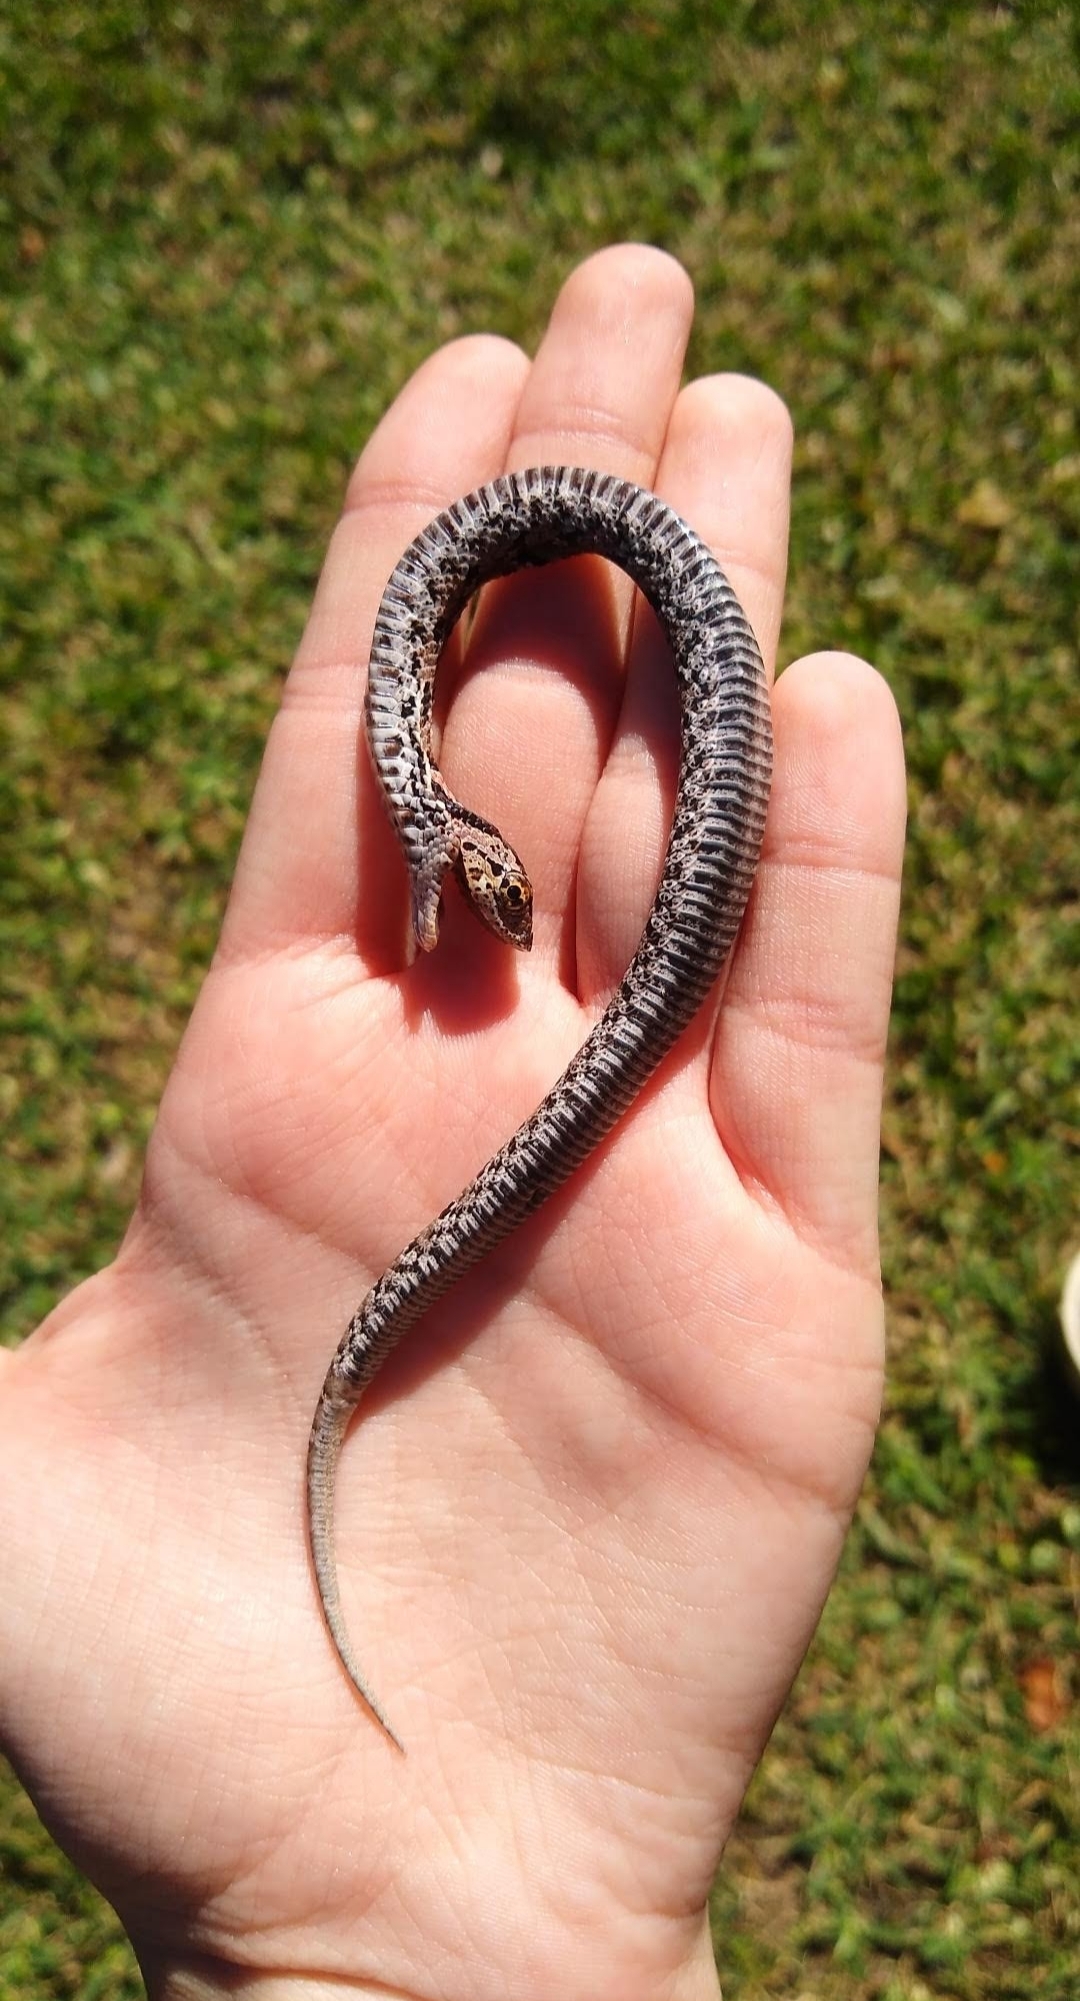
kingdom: Animalia
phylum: Chordata
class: Squamata
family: Colubridae
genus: Heterodon
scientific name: Heterodon platirhinos
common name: Eastern hognose snake
